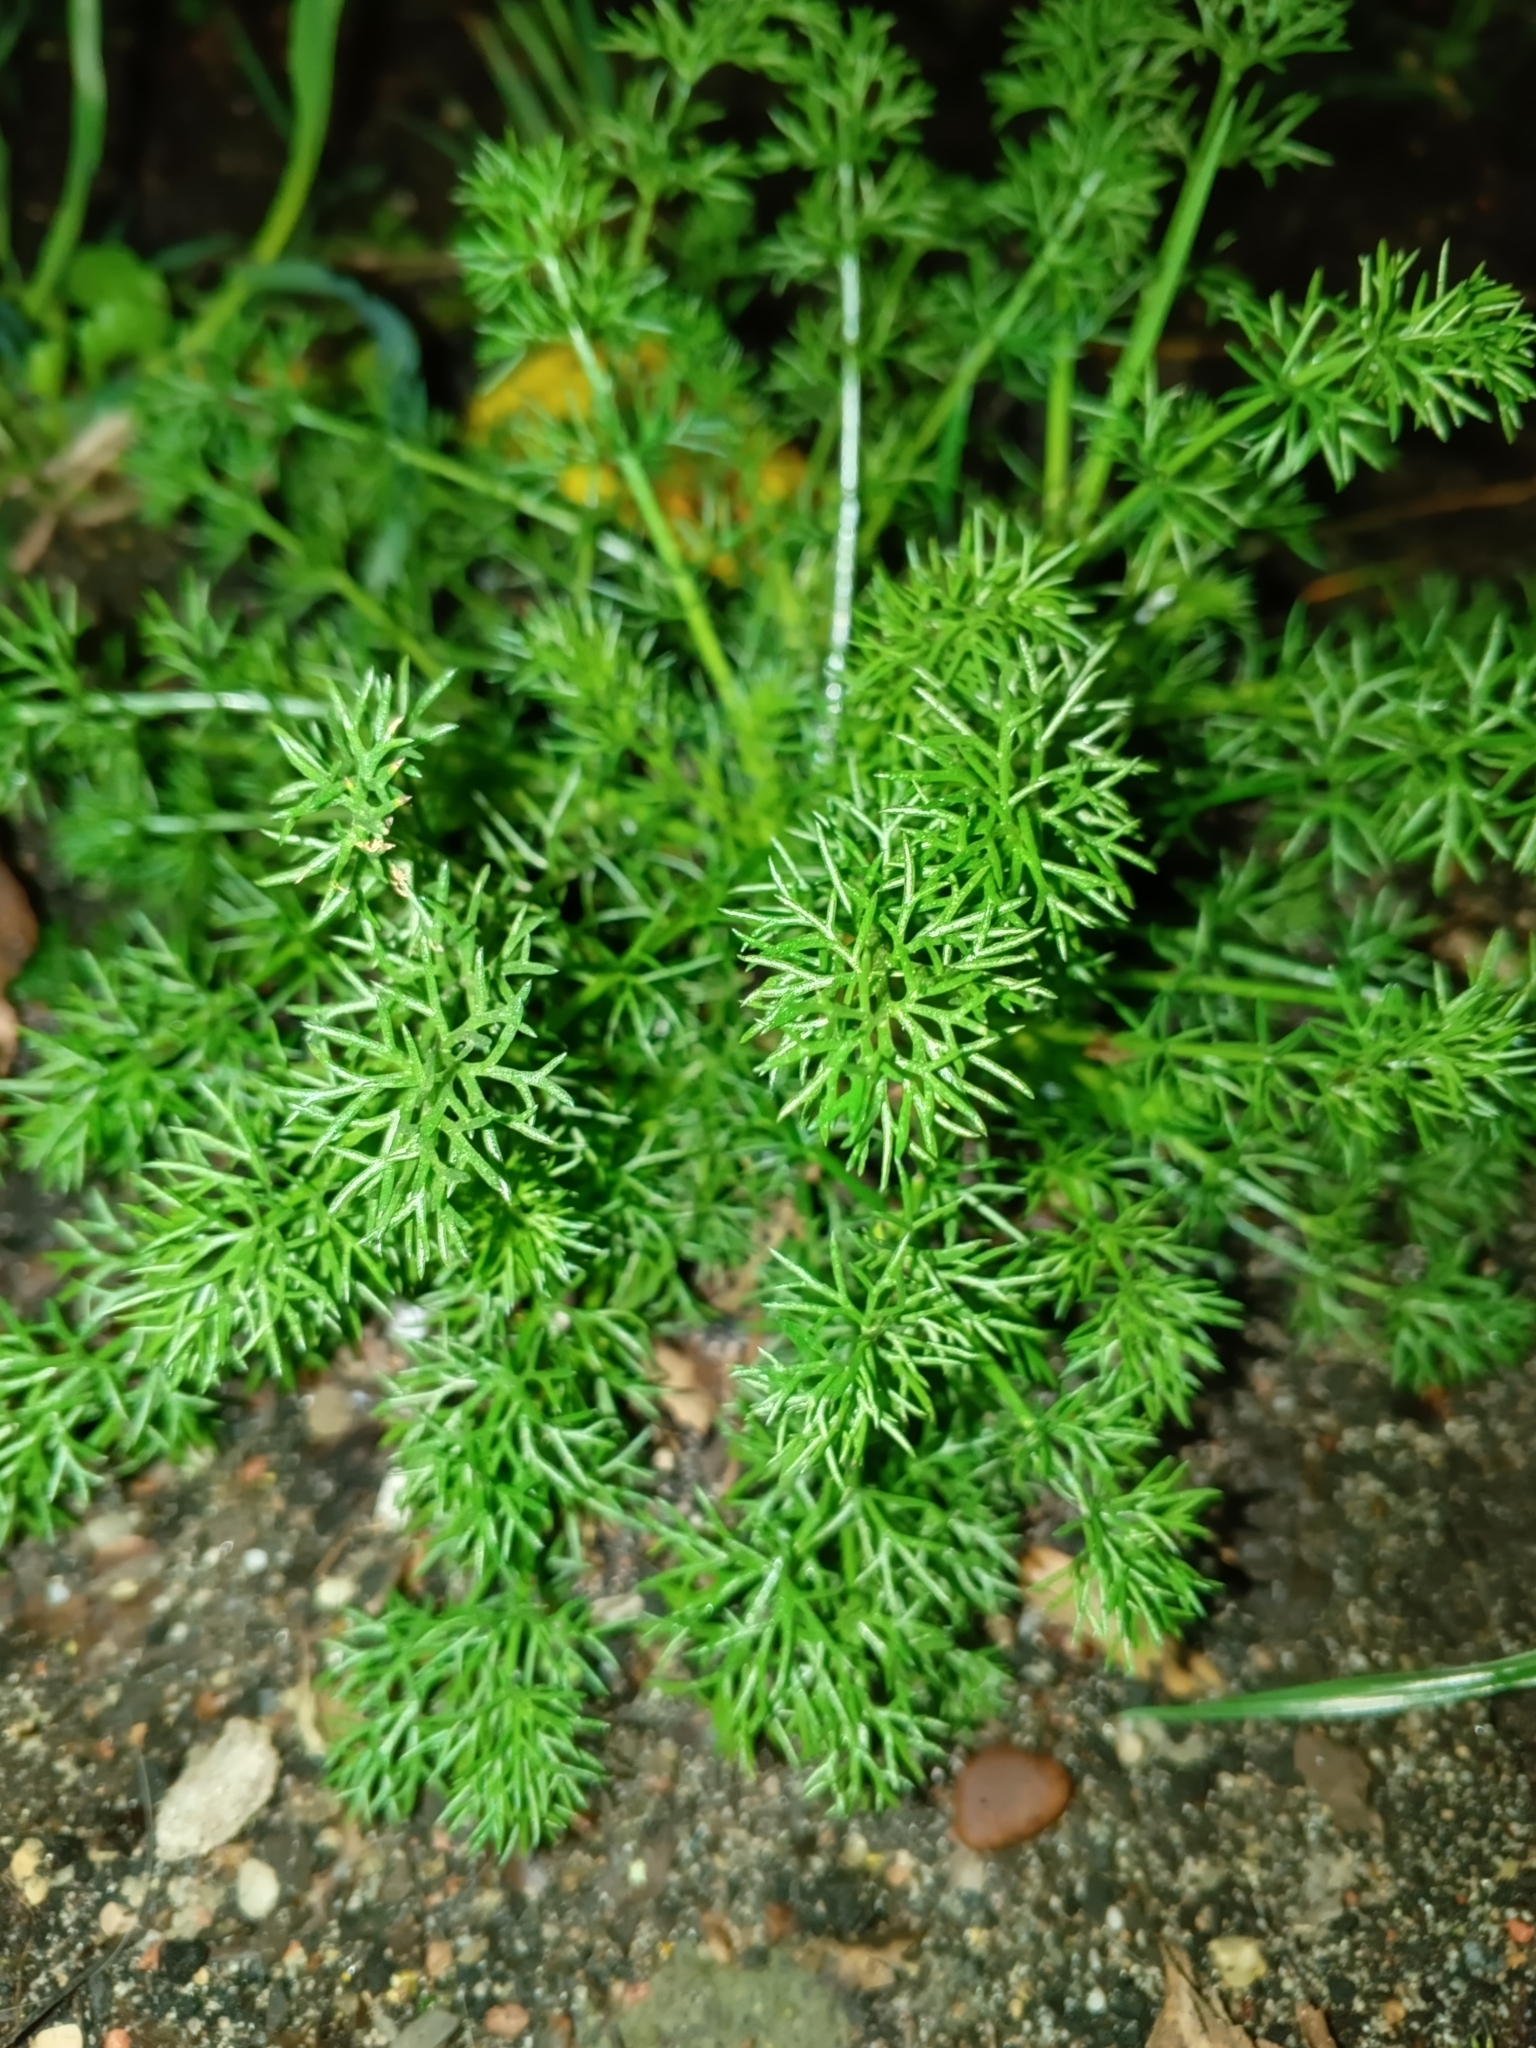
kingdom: Plantae
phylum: Tracheophyta
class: Magnoliopsida
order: Asterales
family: Asteraceae
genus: Tripleurospermum
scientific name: Tripleurospermum inodorum
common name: Scentless mayweed
